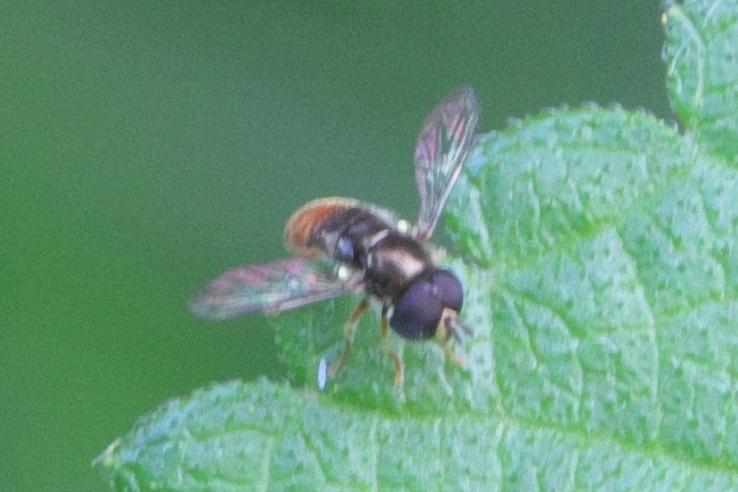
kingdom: Animalia
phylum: Arthropoda
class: Insecta
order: Diptera
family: Syrphidae
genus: Paragus
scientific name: Paragus haemorrhous
